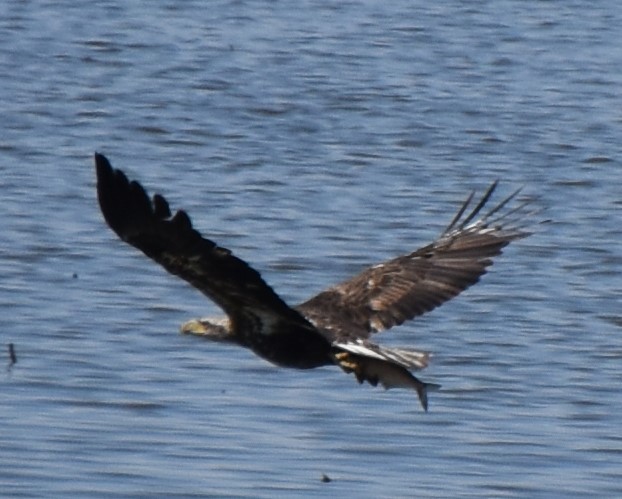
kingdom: Animalia
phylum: Chordata
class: Aves
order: Accipitriformes
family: Accipitridae
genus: Haliaeetus
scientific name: Haliaeetus leucocephalus
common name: Bald eagle
